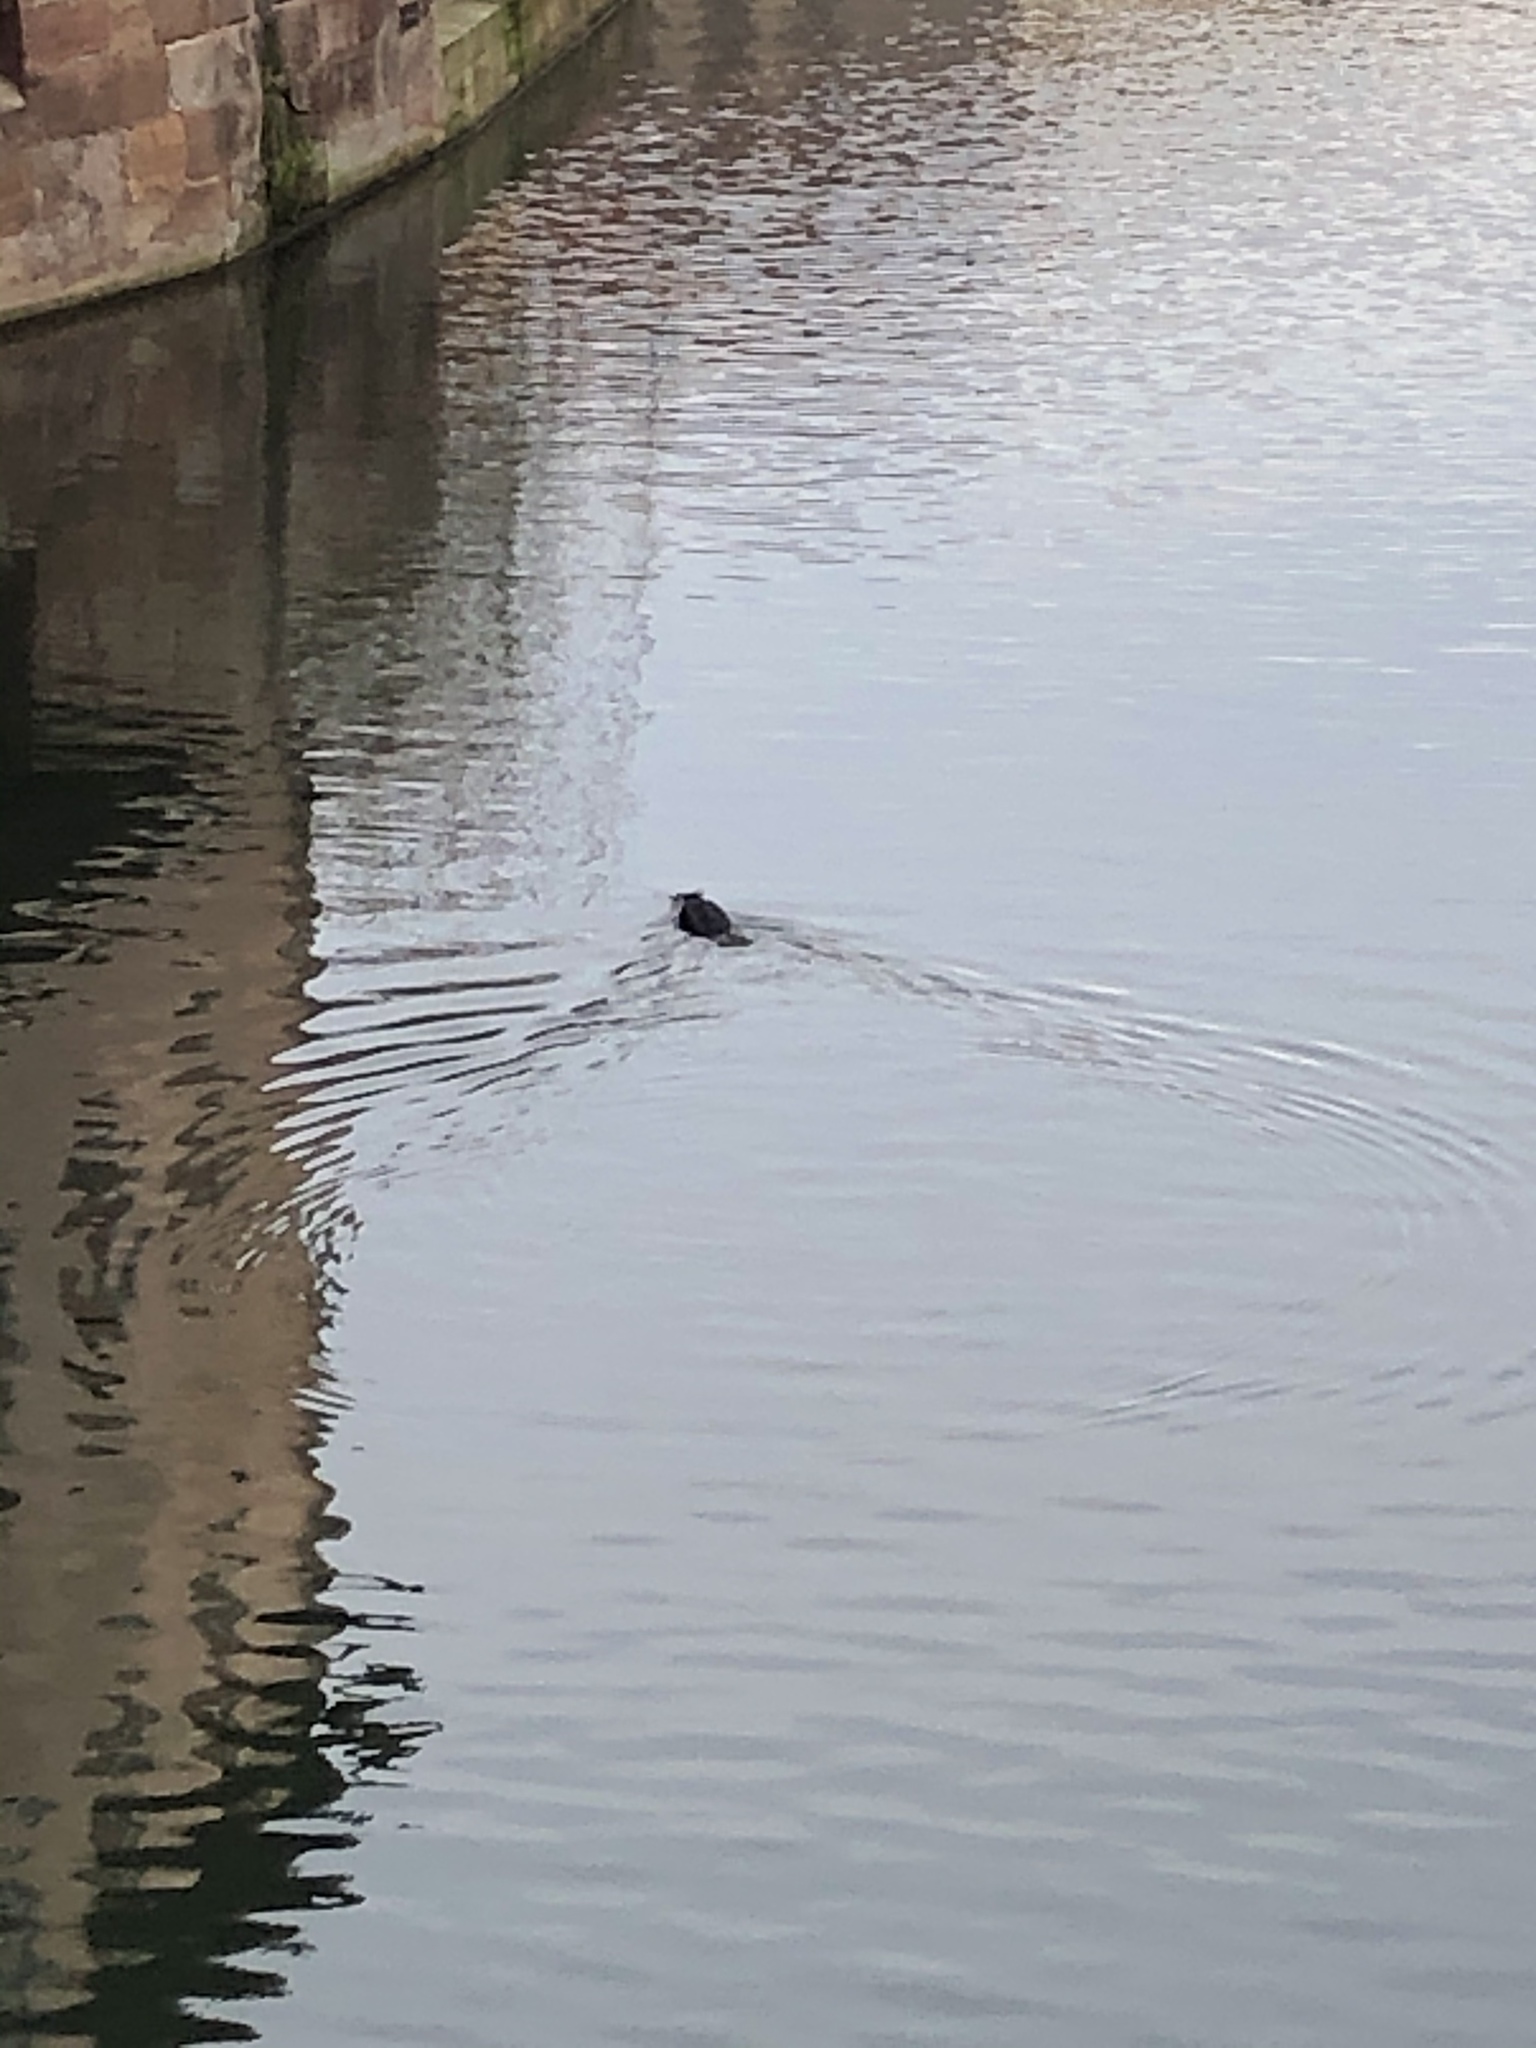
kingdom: Animalia
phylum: Chordata
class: Aves
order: Suliformes
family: Phalacrocoracidae
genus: Phalacrocorax
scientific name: Phalacrocorax carbo
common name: Great cormorant
